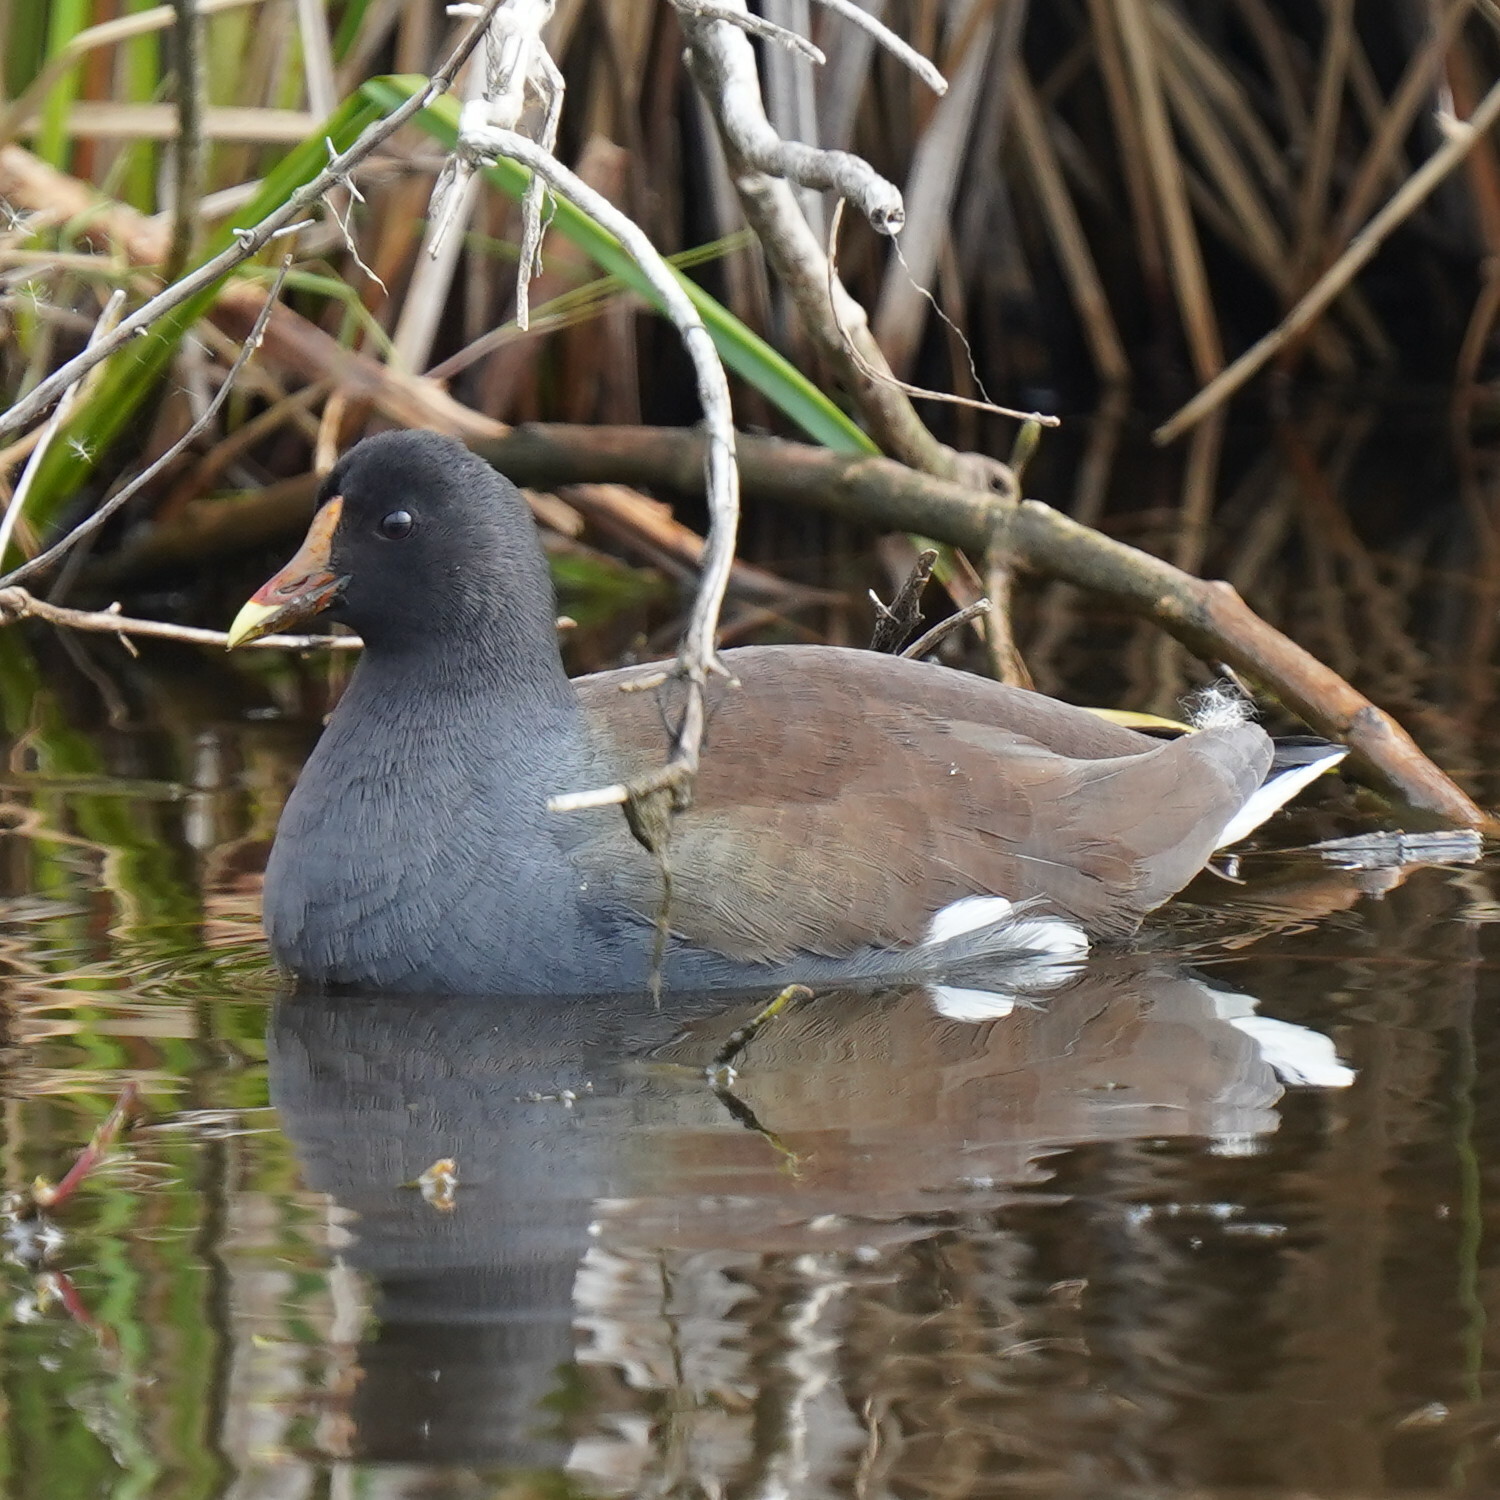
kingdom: Animalia
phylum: Chordata
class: Aves
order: Gruiformes
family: Rallidae
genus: Gallinula
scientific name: Gallinula chloropus
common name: Common moorhen
